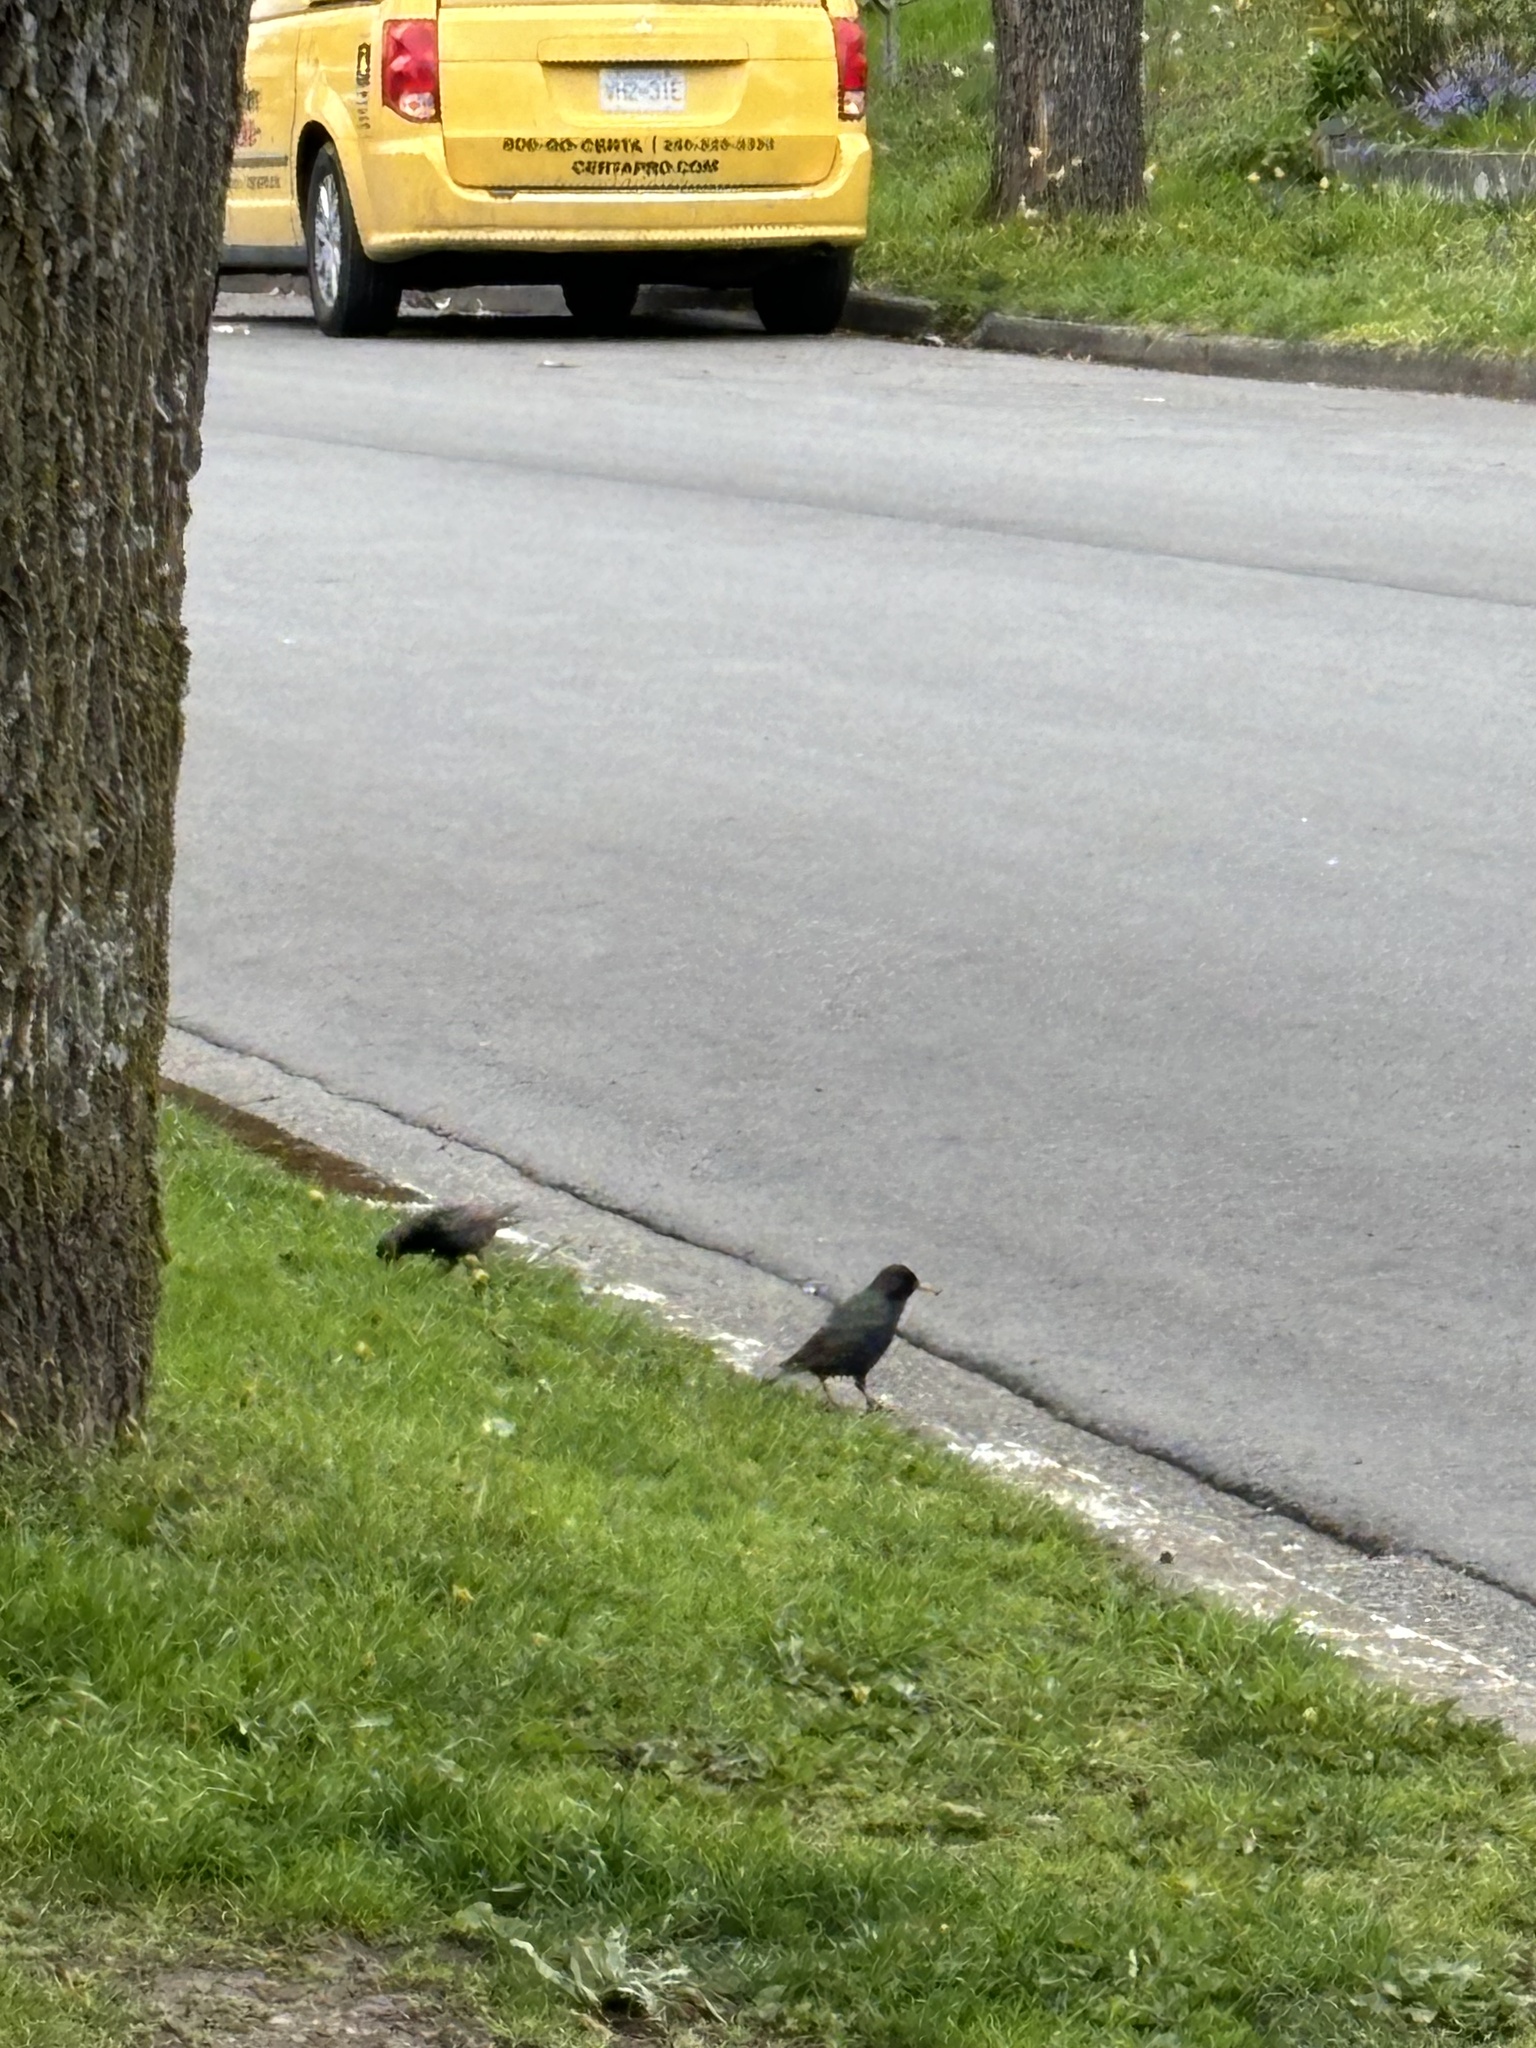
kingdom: Animalia
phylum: Chordata
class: Aves
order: Passeriformes
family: Sturnidae
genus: Sturnus
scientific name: Sturnus vulgaris
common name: Common starling
